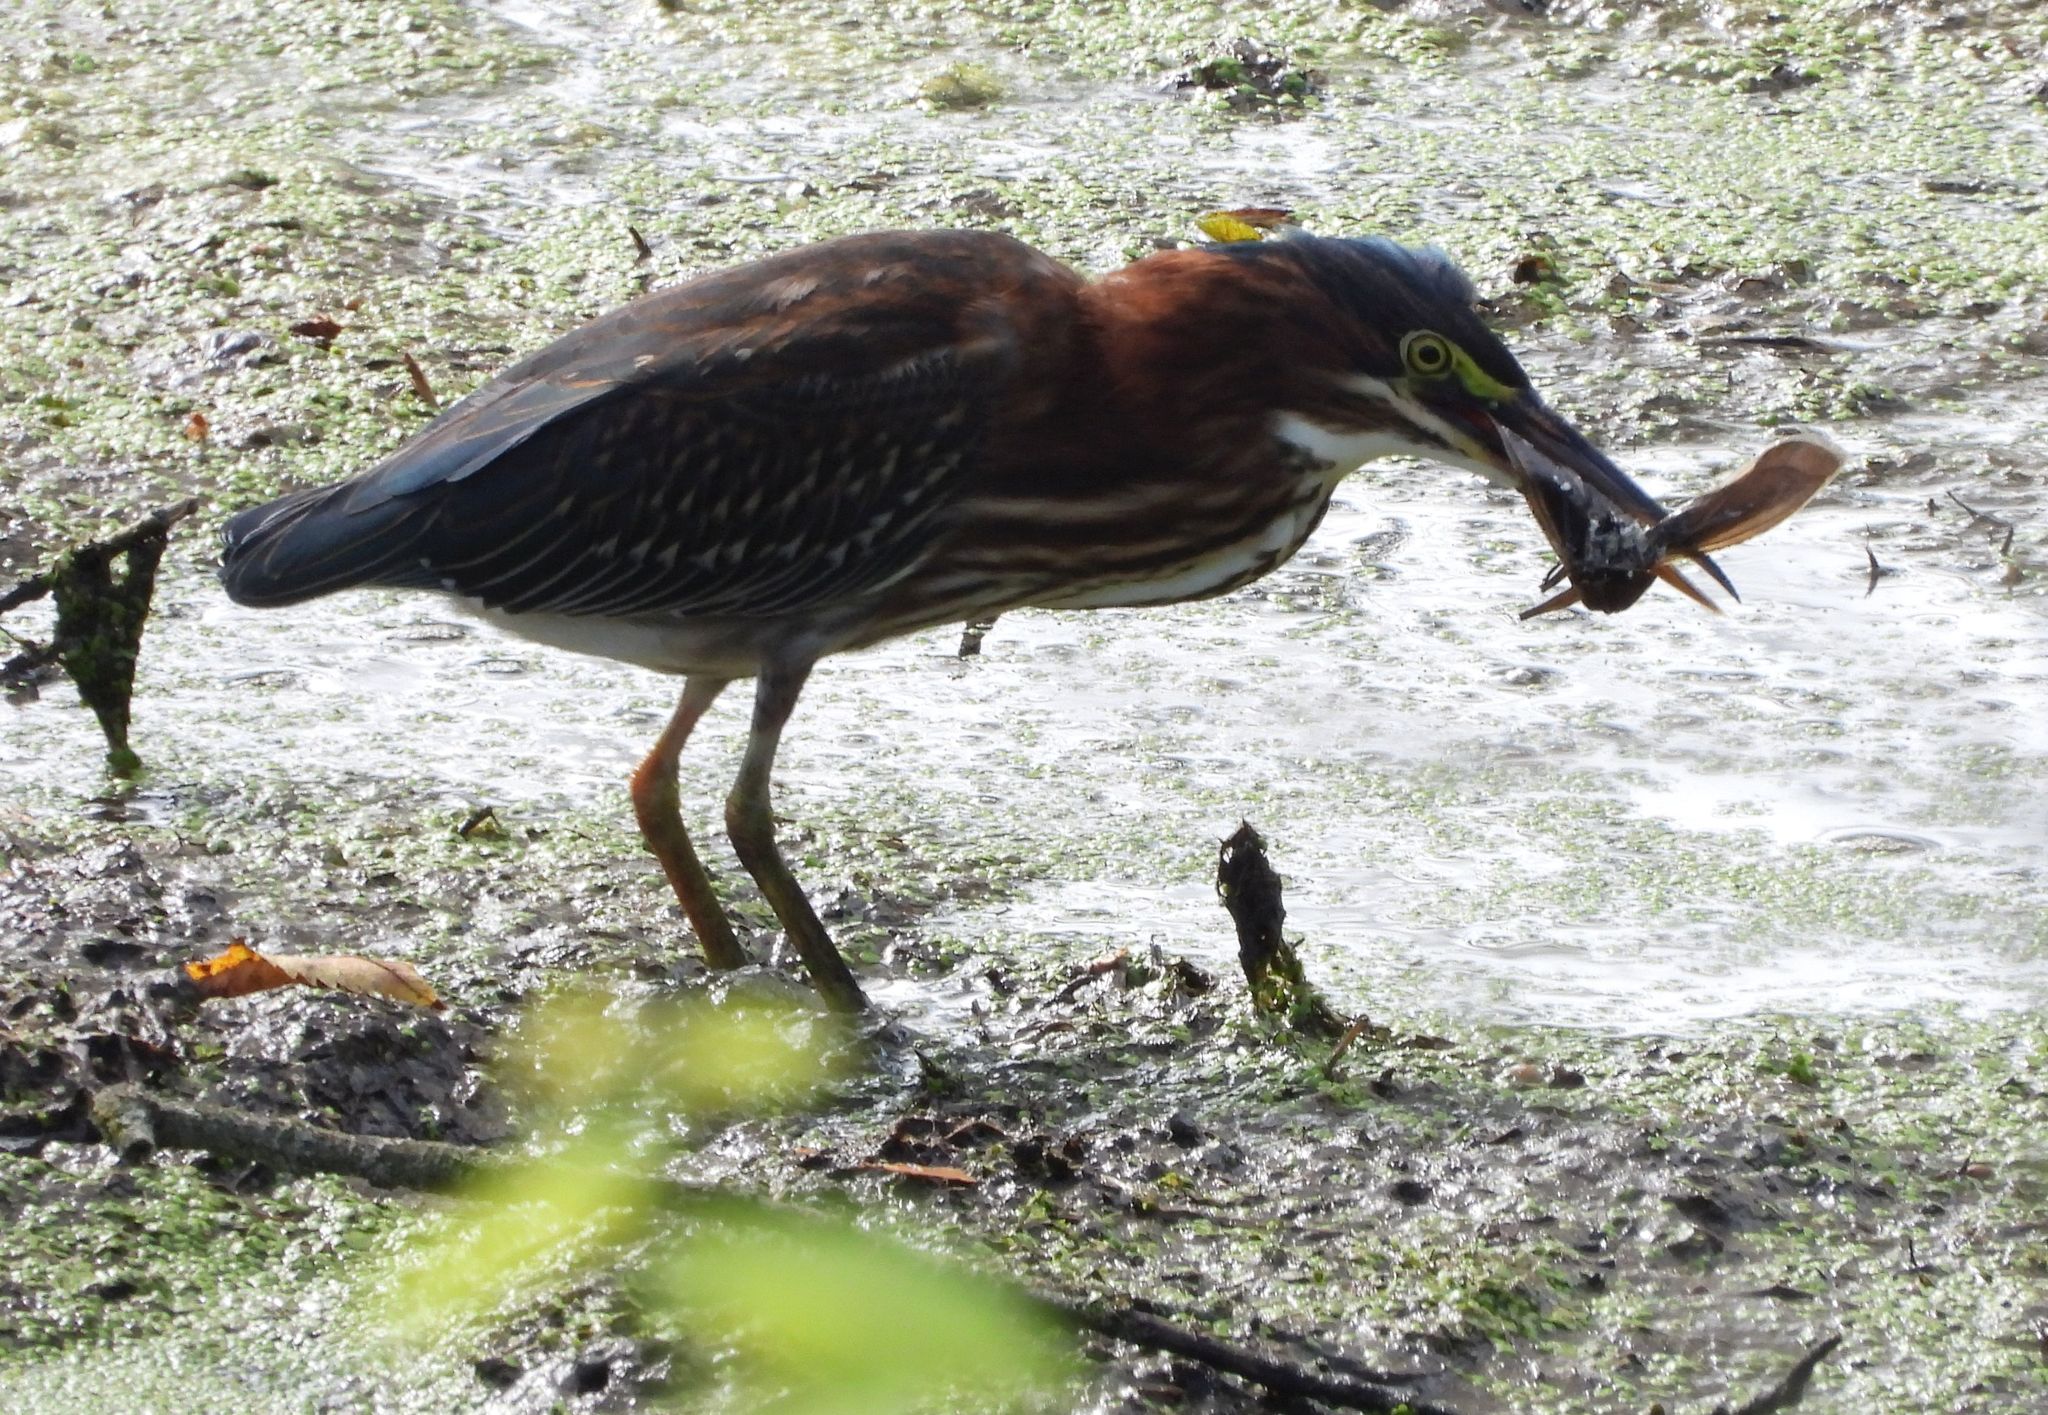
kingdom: Animalia
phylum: Chordata
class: Aves
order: Pelecaniformes
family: Ardeidae
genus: Butorides
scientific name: Butorides virescens
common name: Green heron
